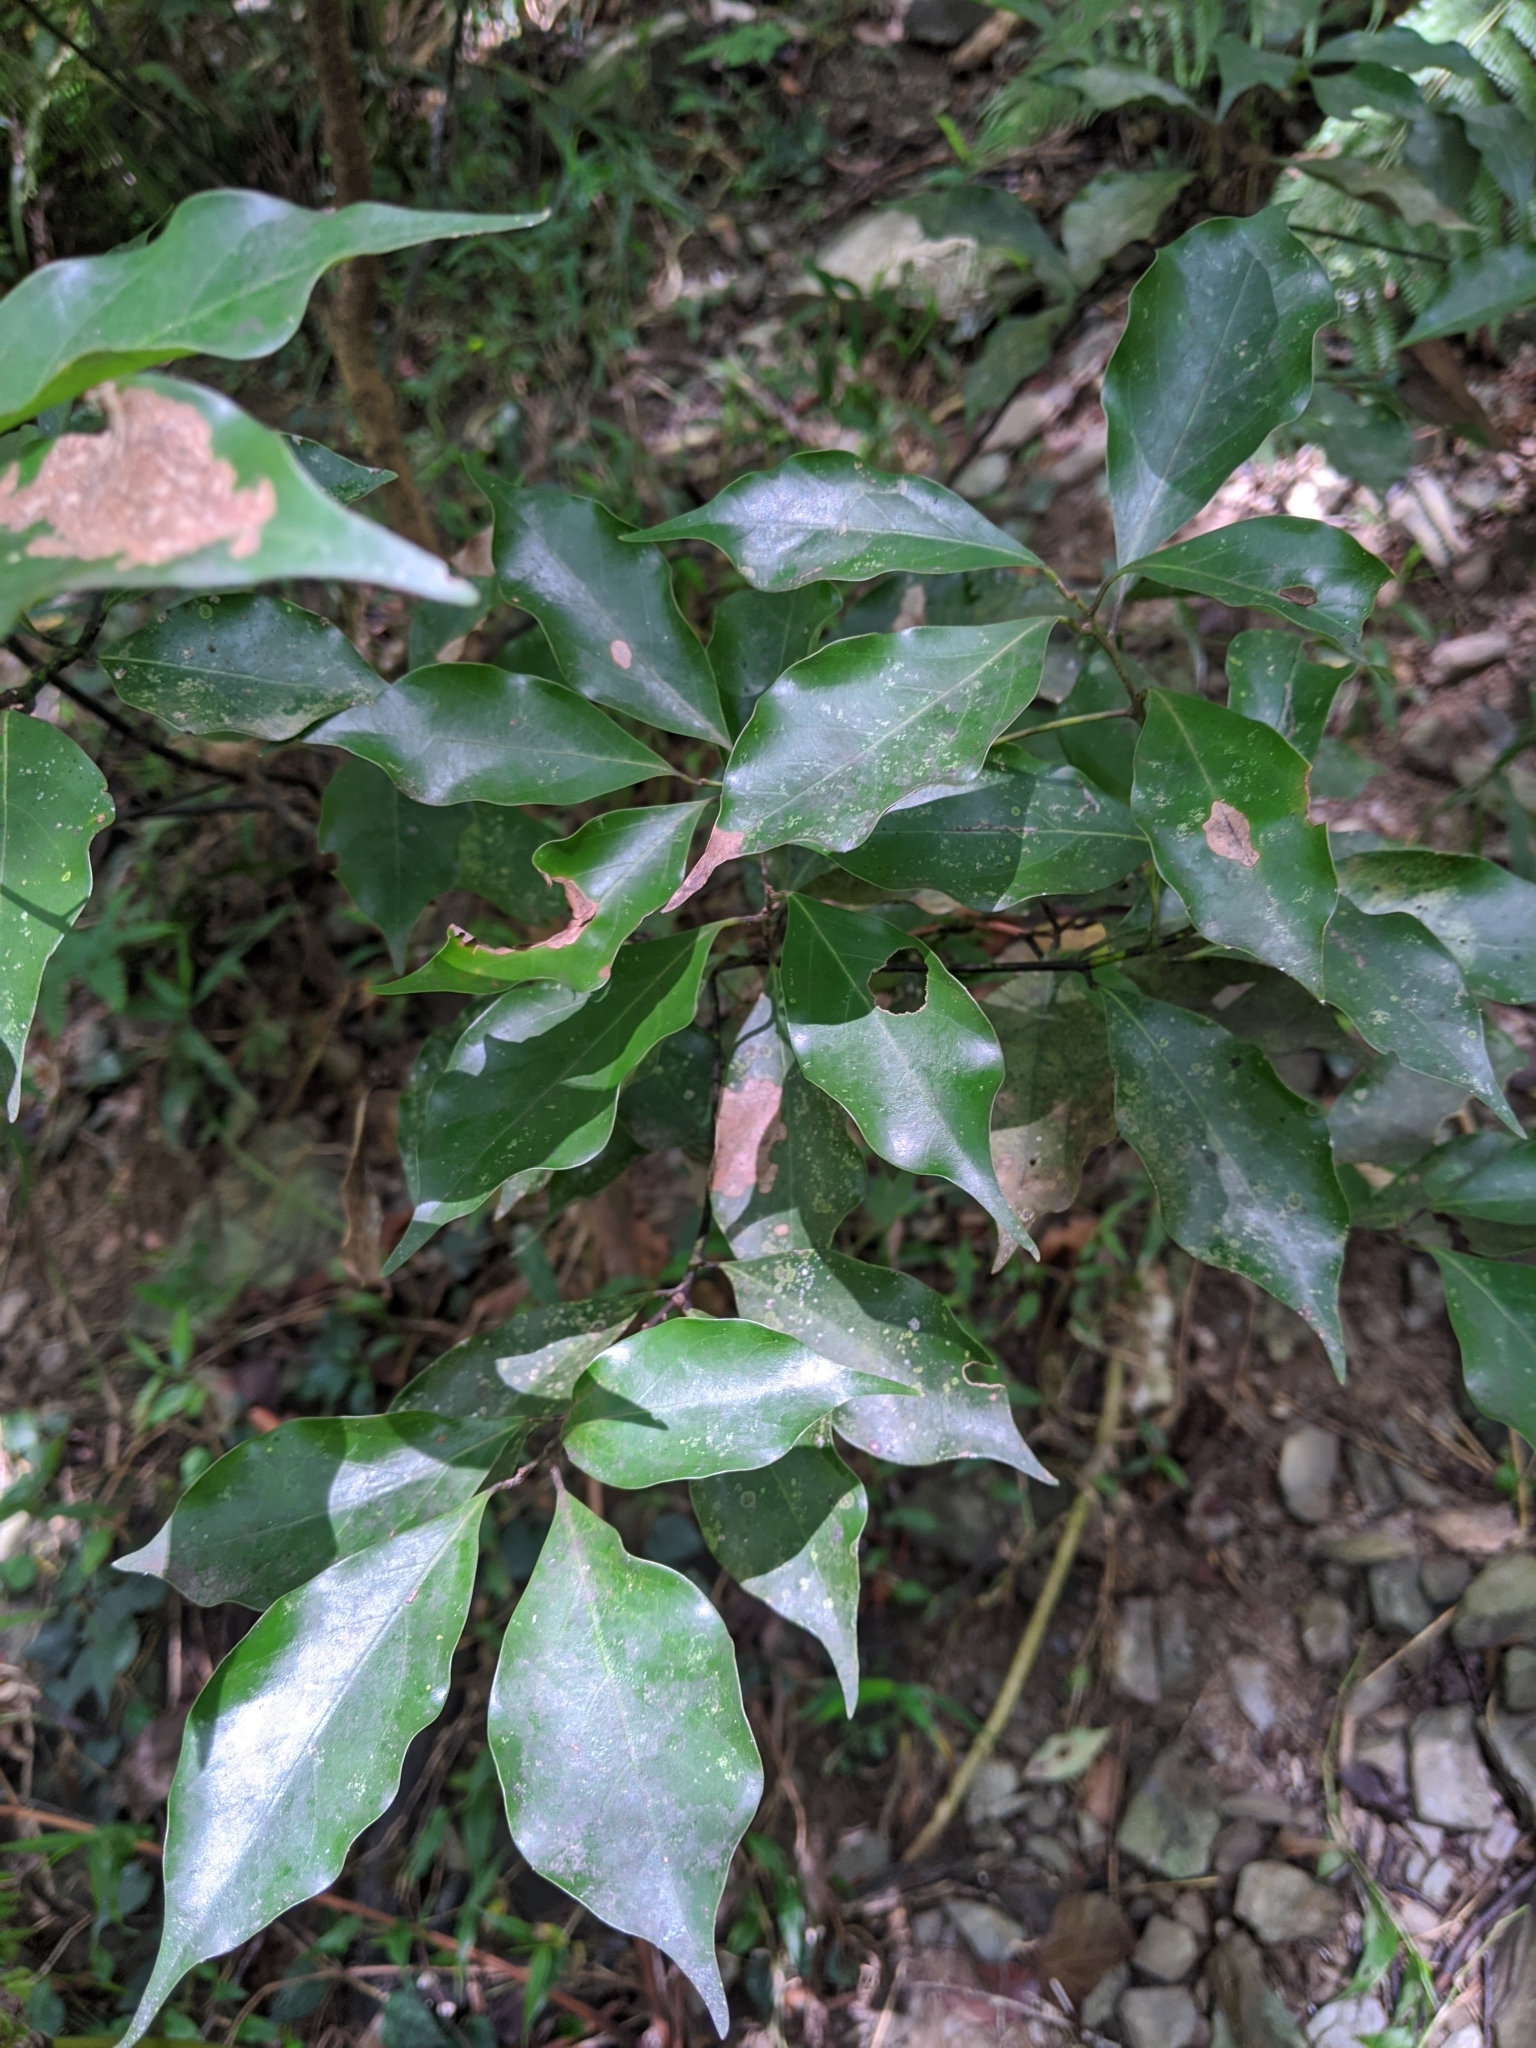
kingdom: Plantae
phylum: Tracheophyta
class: Magnoliopsida
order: Laurales
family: Lauraceae
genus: Cinnamomum
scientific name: Cinnamomum philippinense
